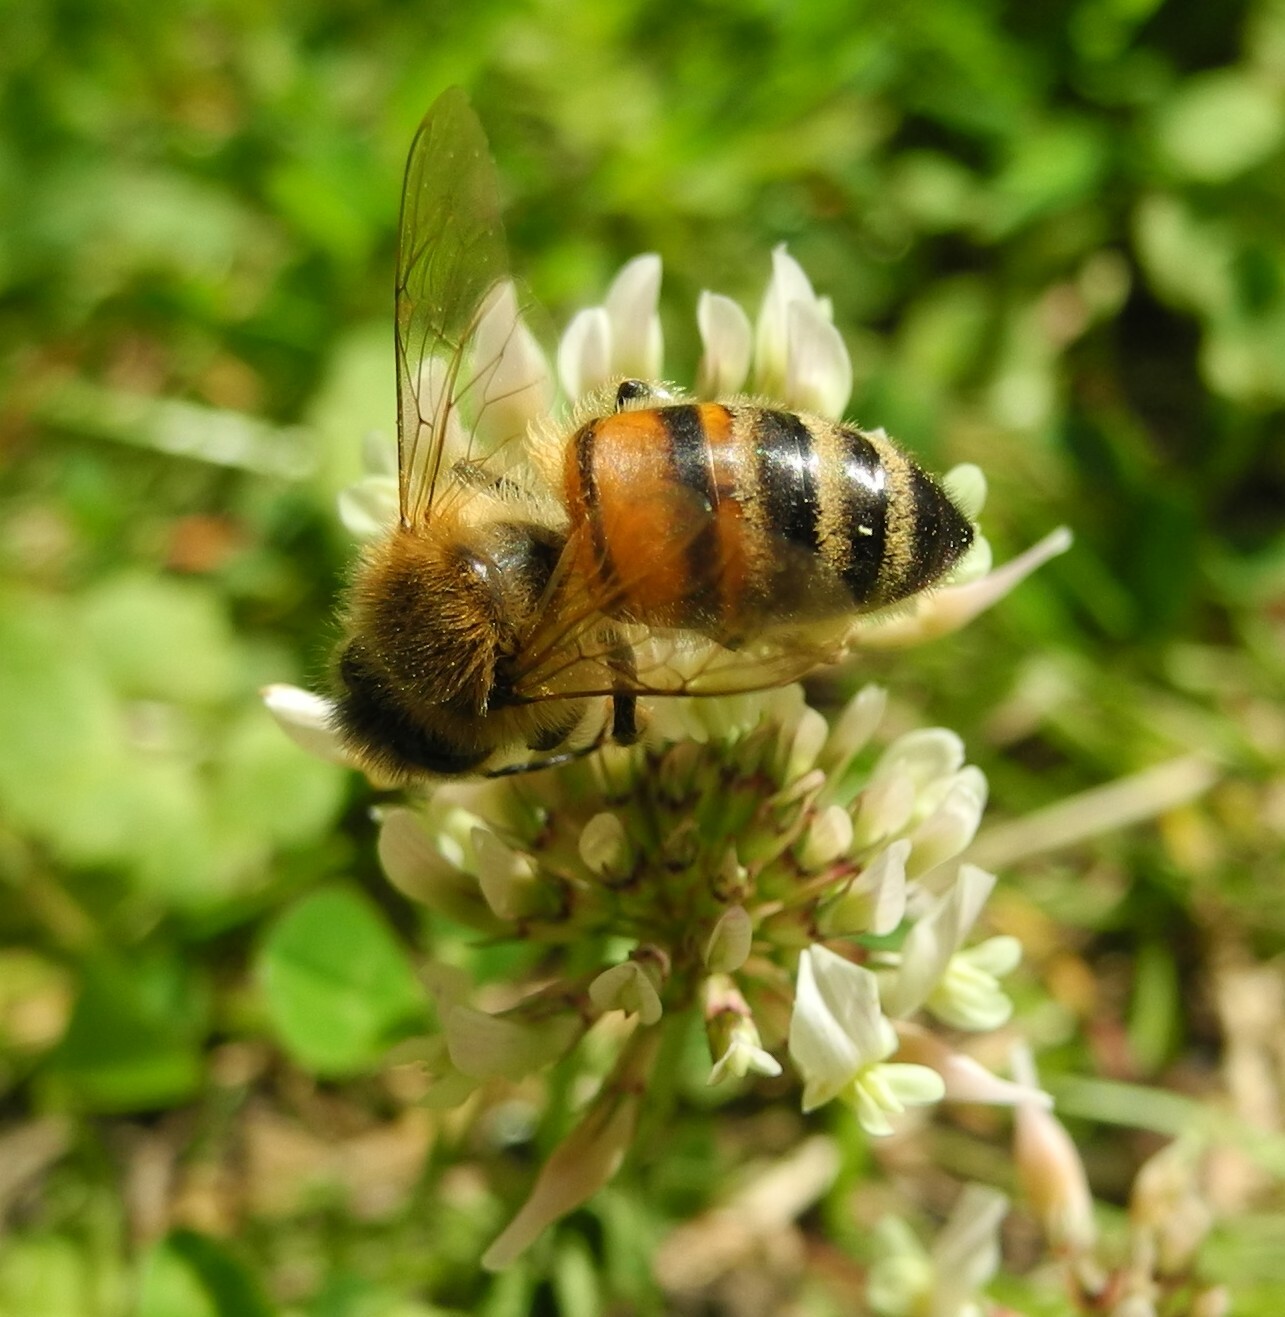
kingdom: Animalia
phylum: Arthropoda
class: Insecta
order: Hymenoptera
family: Apidae
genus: Apis
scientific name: Apis mellifera
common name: Honey bee
